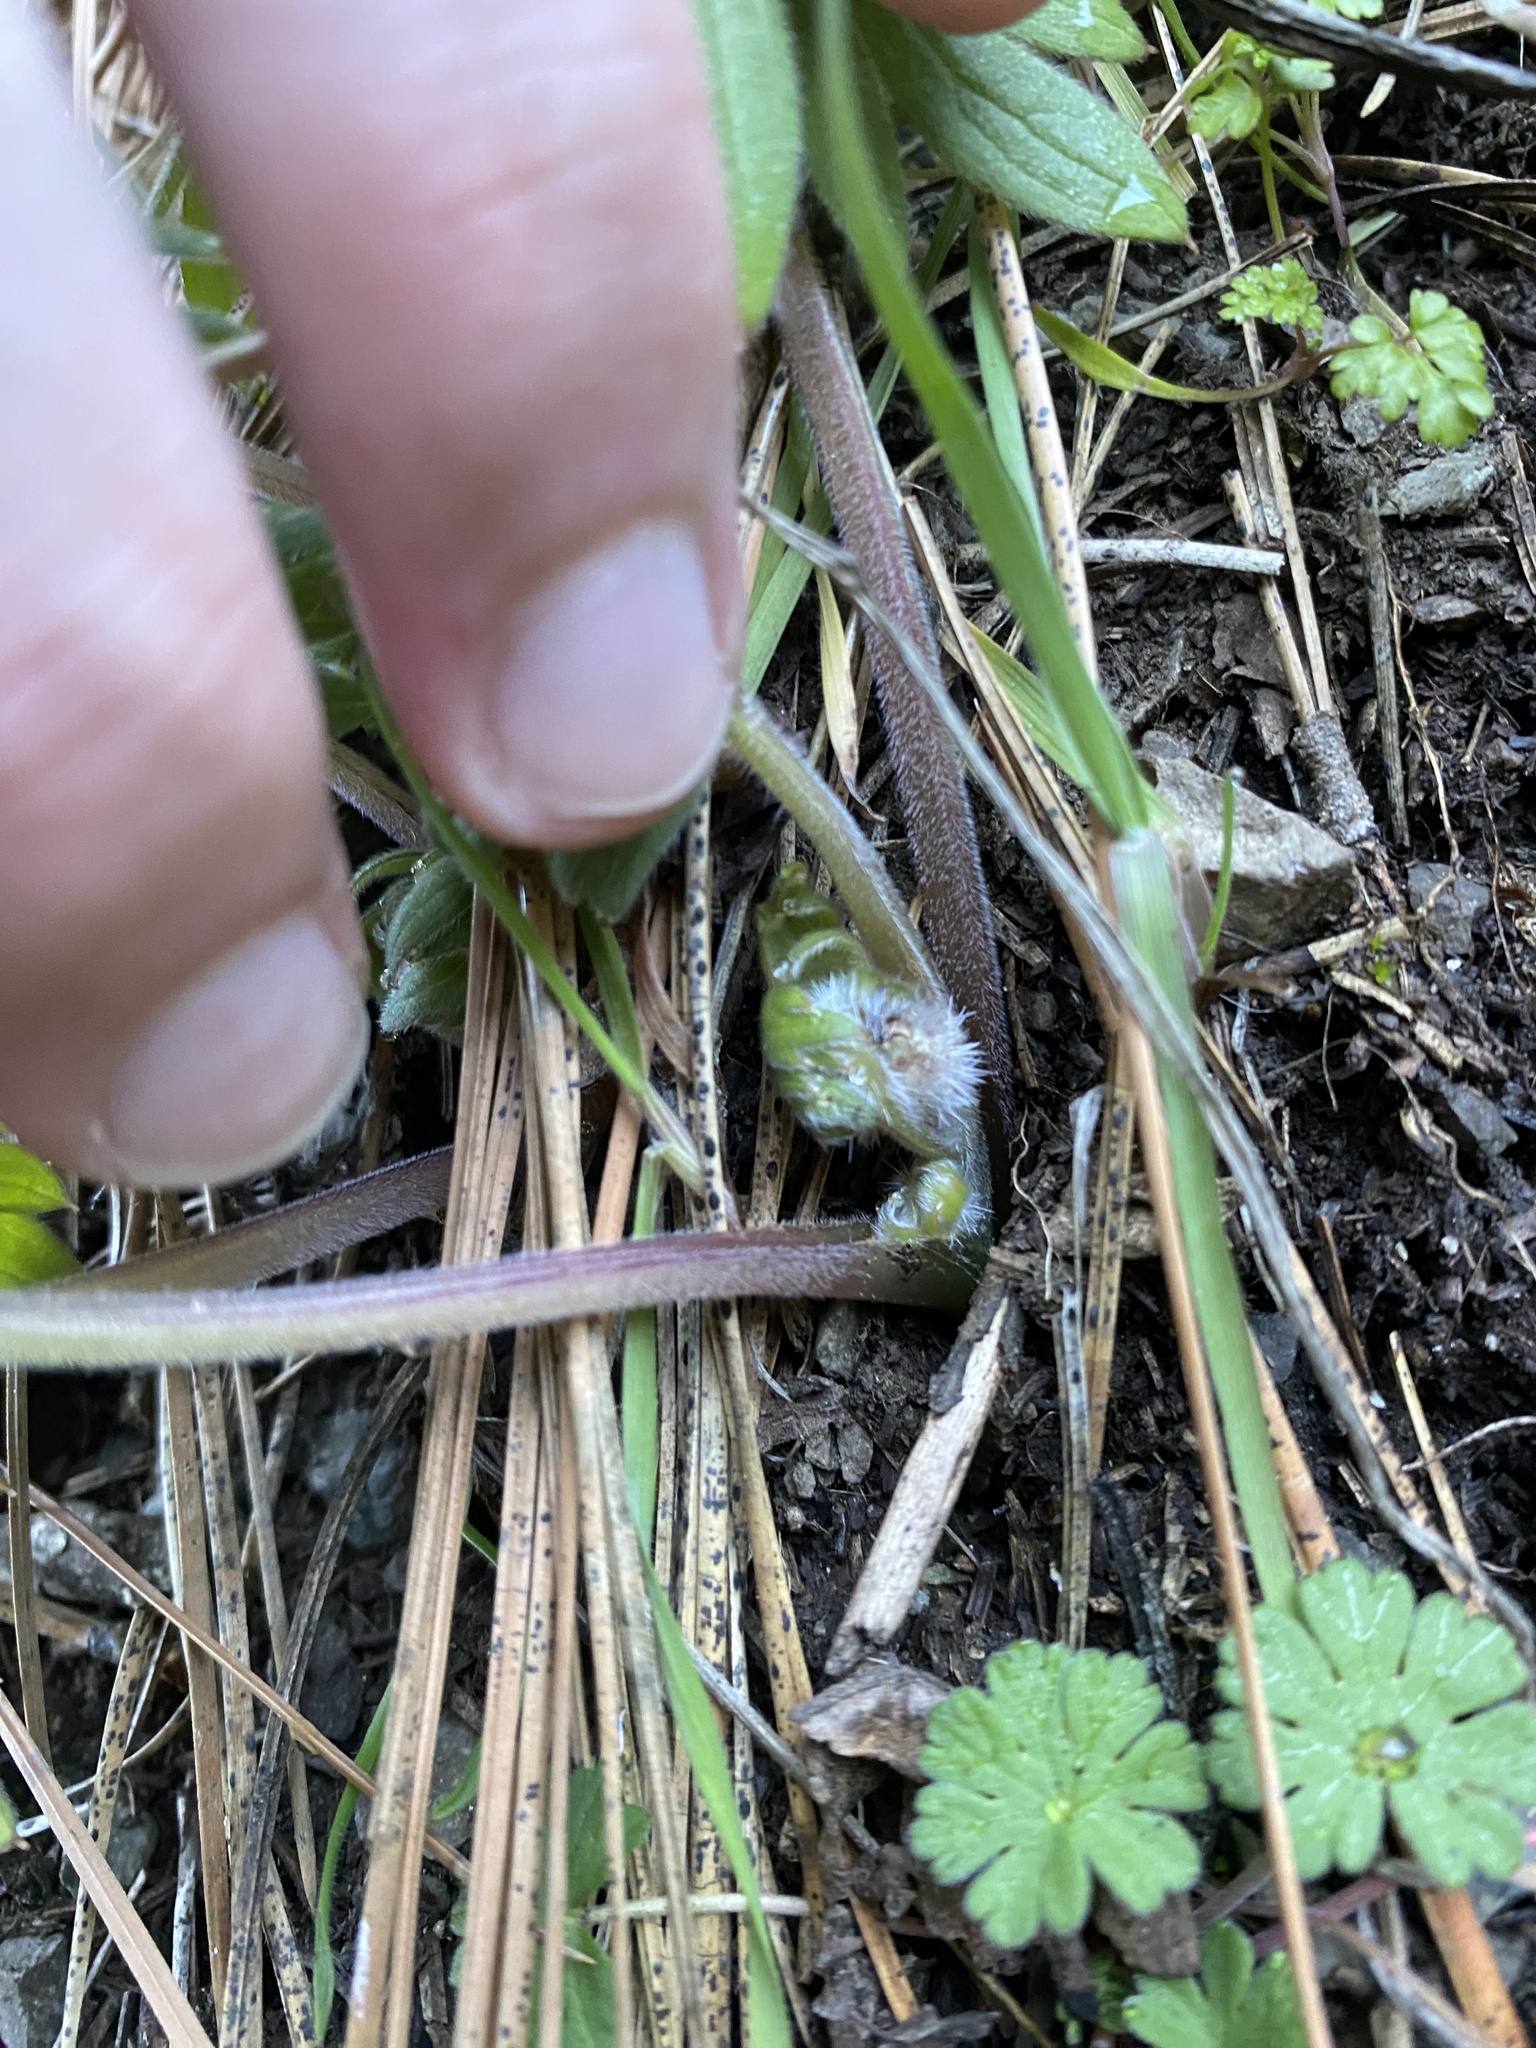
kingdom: Plantae
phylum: Tracheophyta
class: Magnoliopsida
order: Boraginales
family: Hydrophyllaceae
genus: Hydrophyllum
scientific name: Hydrophyllum capitatum
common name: Woollen-breeches
